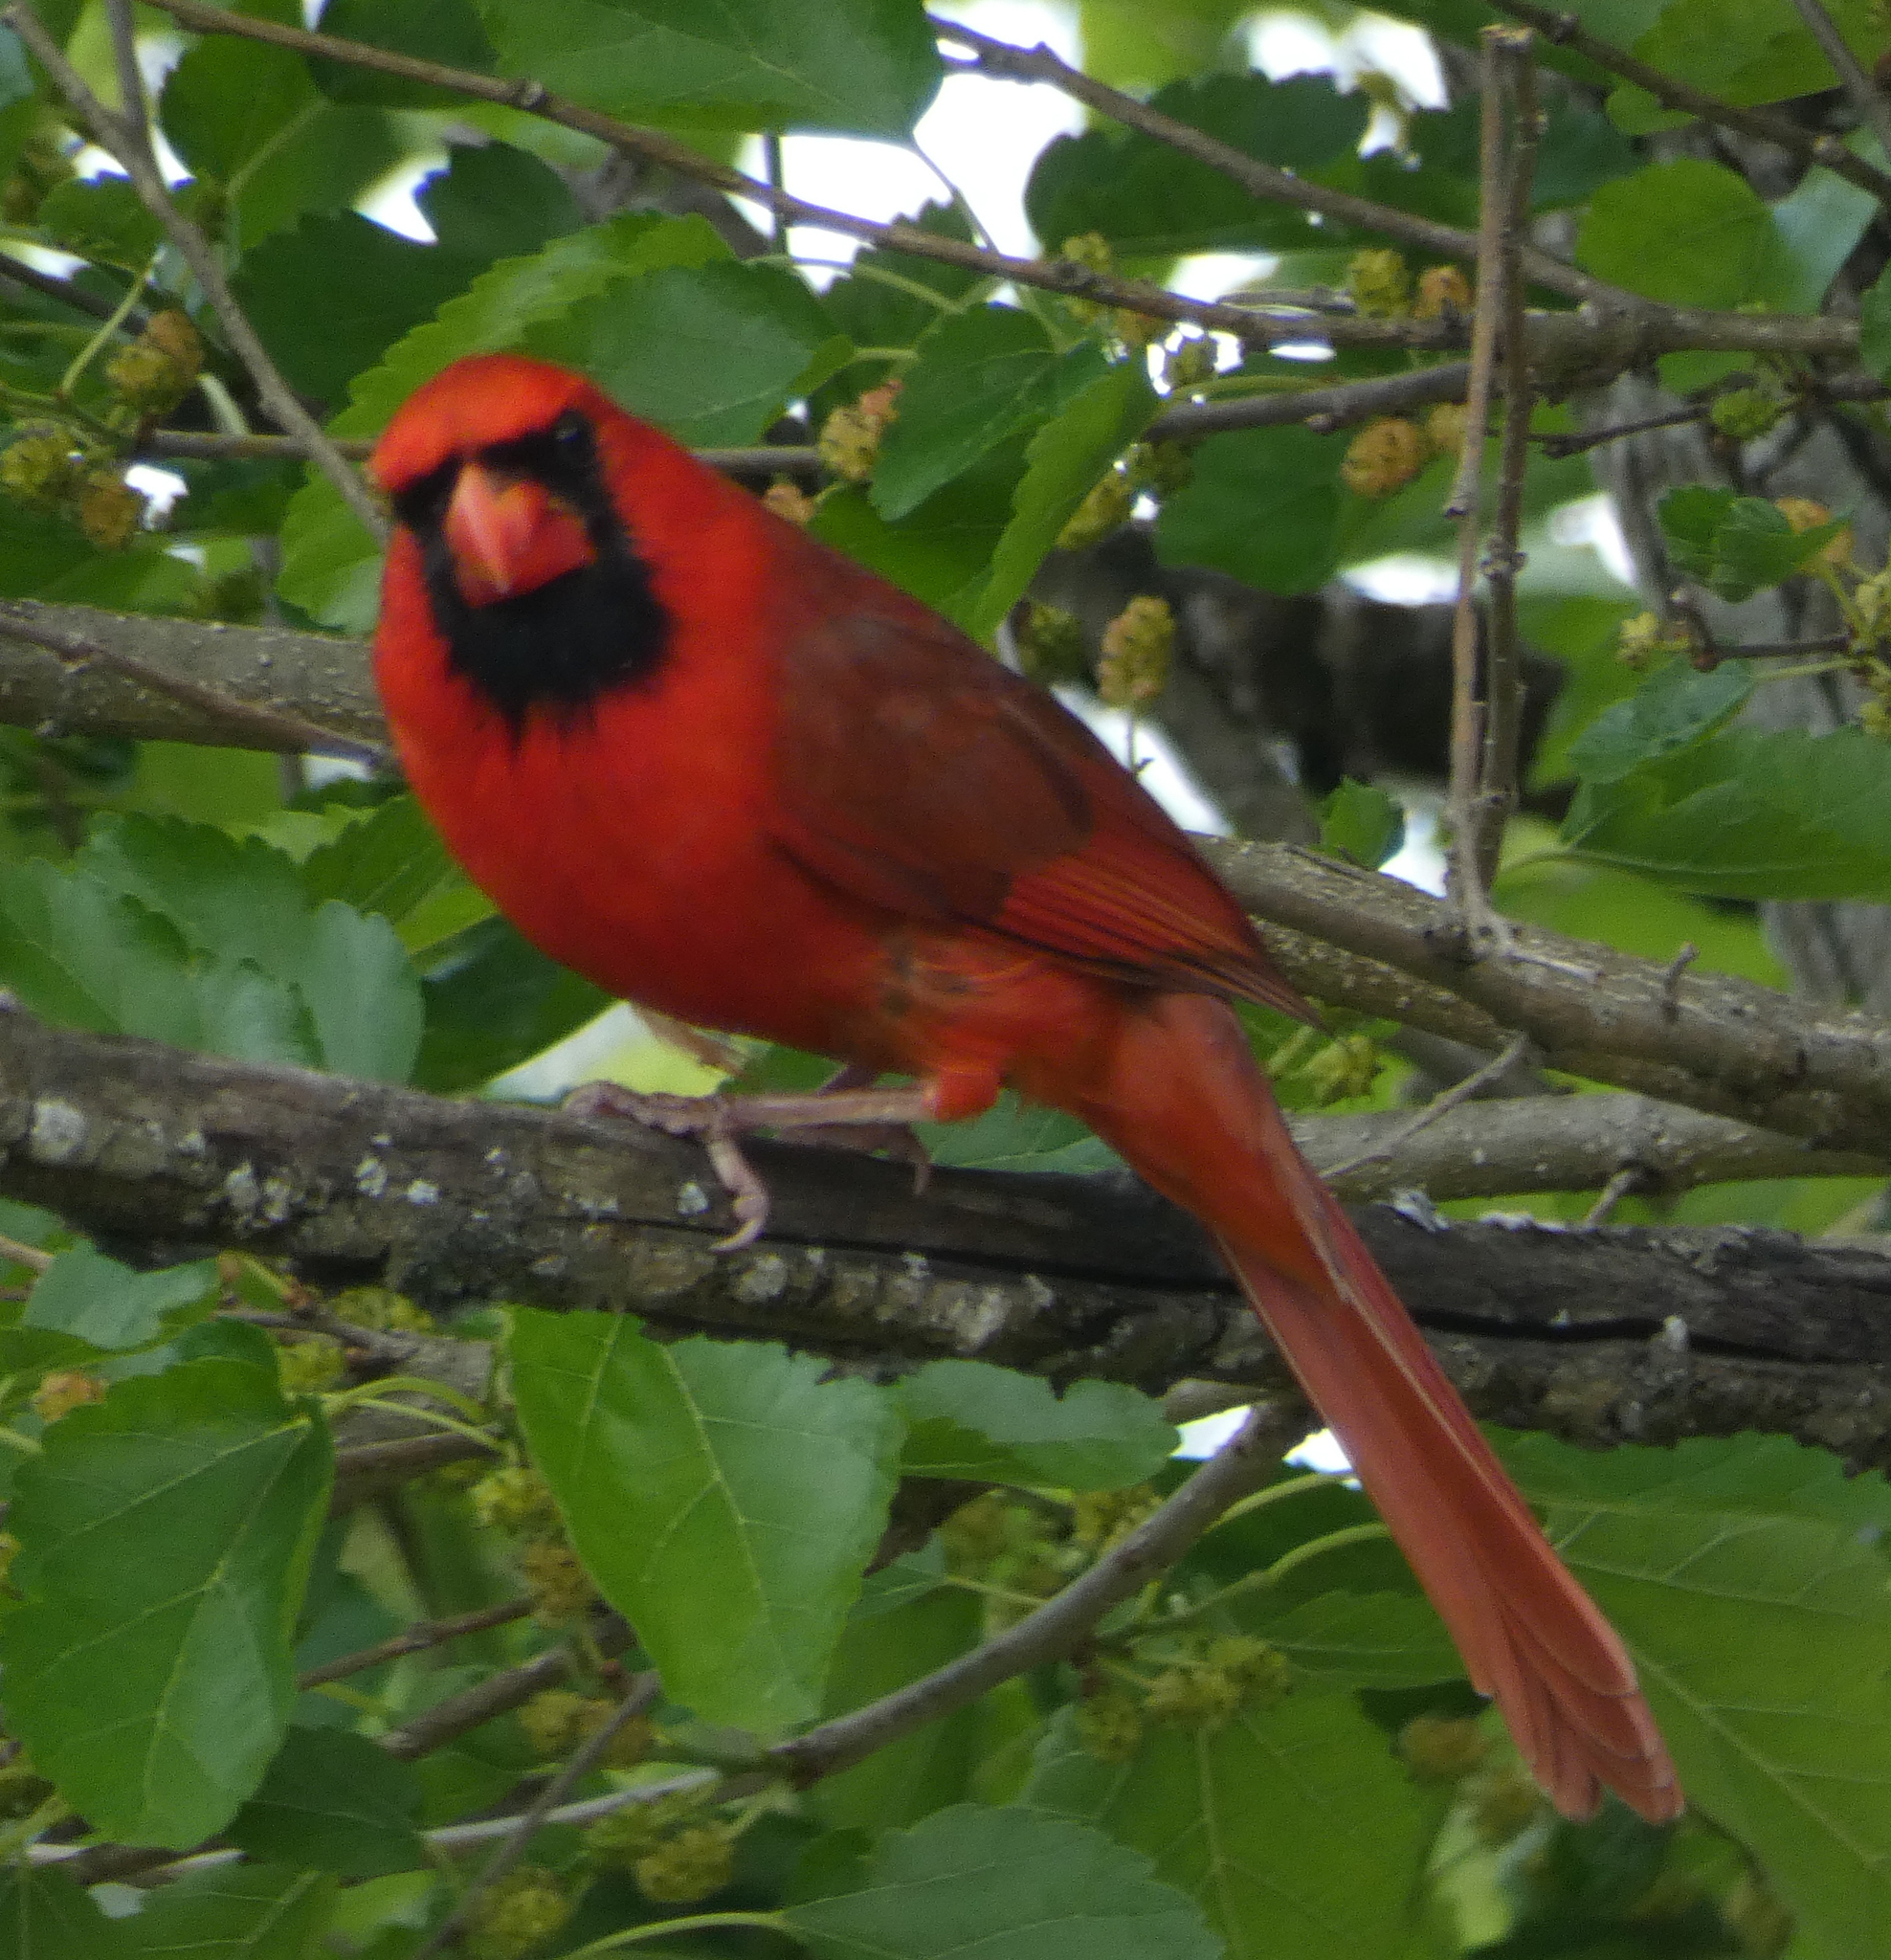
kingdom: Animalia
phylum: Chordata
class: Aves
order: Passeriformes
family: Cardinalidae
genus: Cardinalis
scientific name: Cardinalis cardinalis
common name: Northern cardinal
